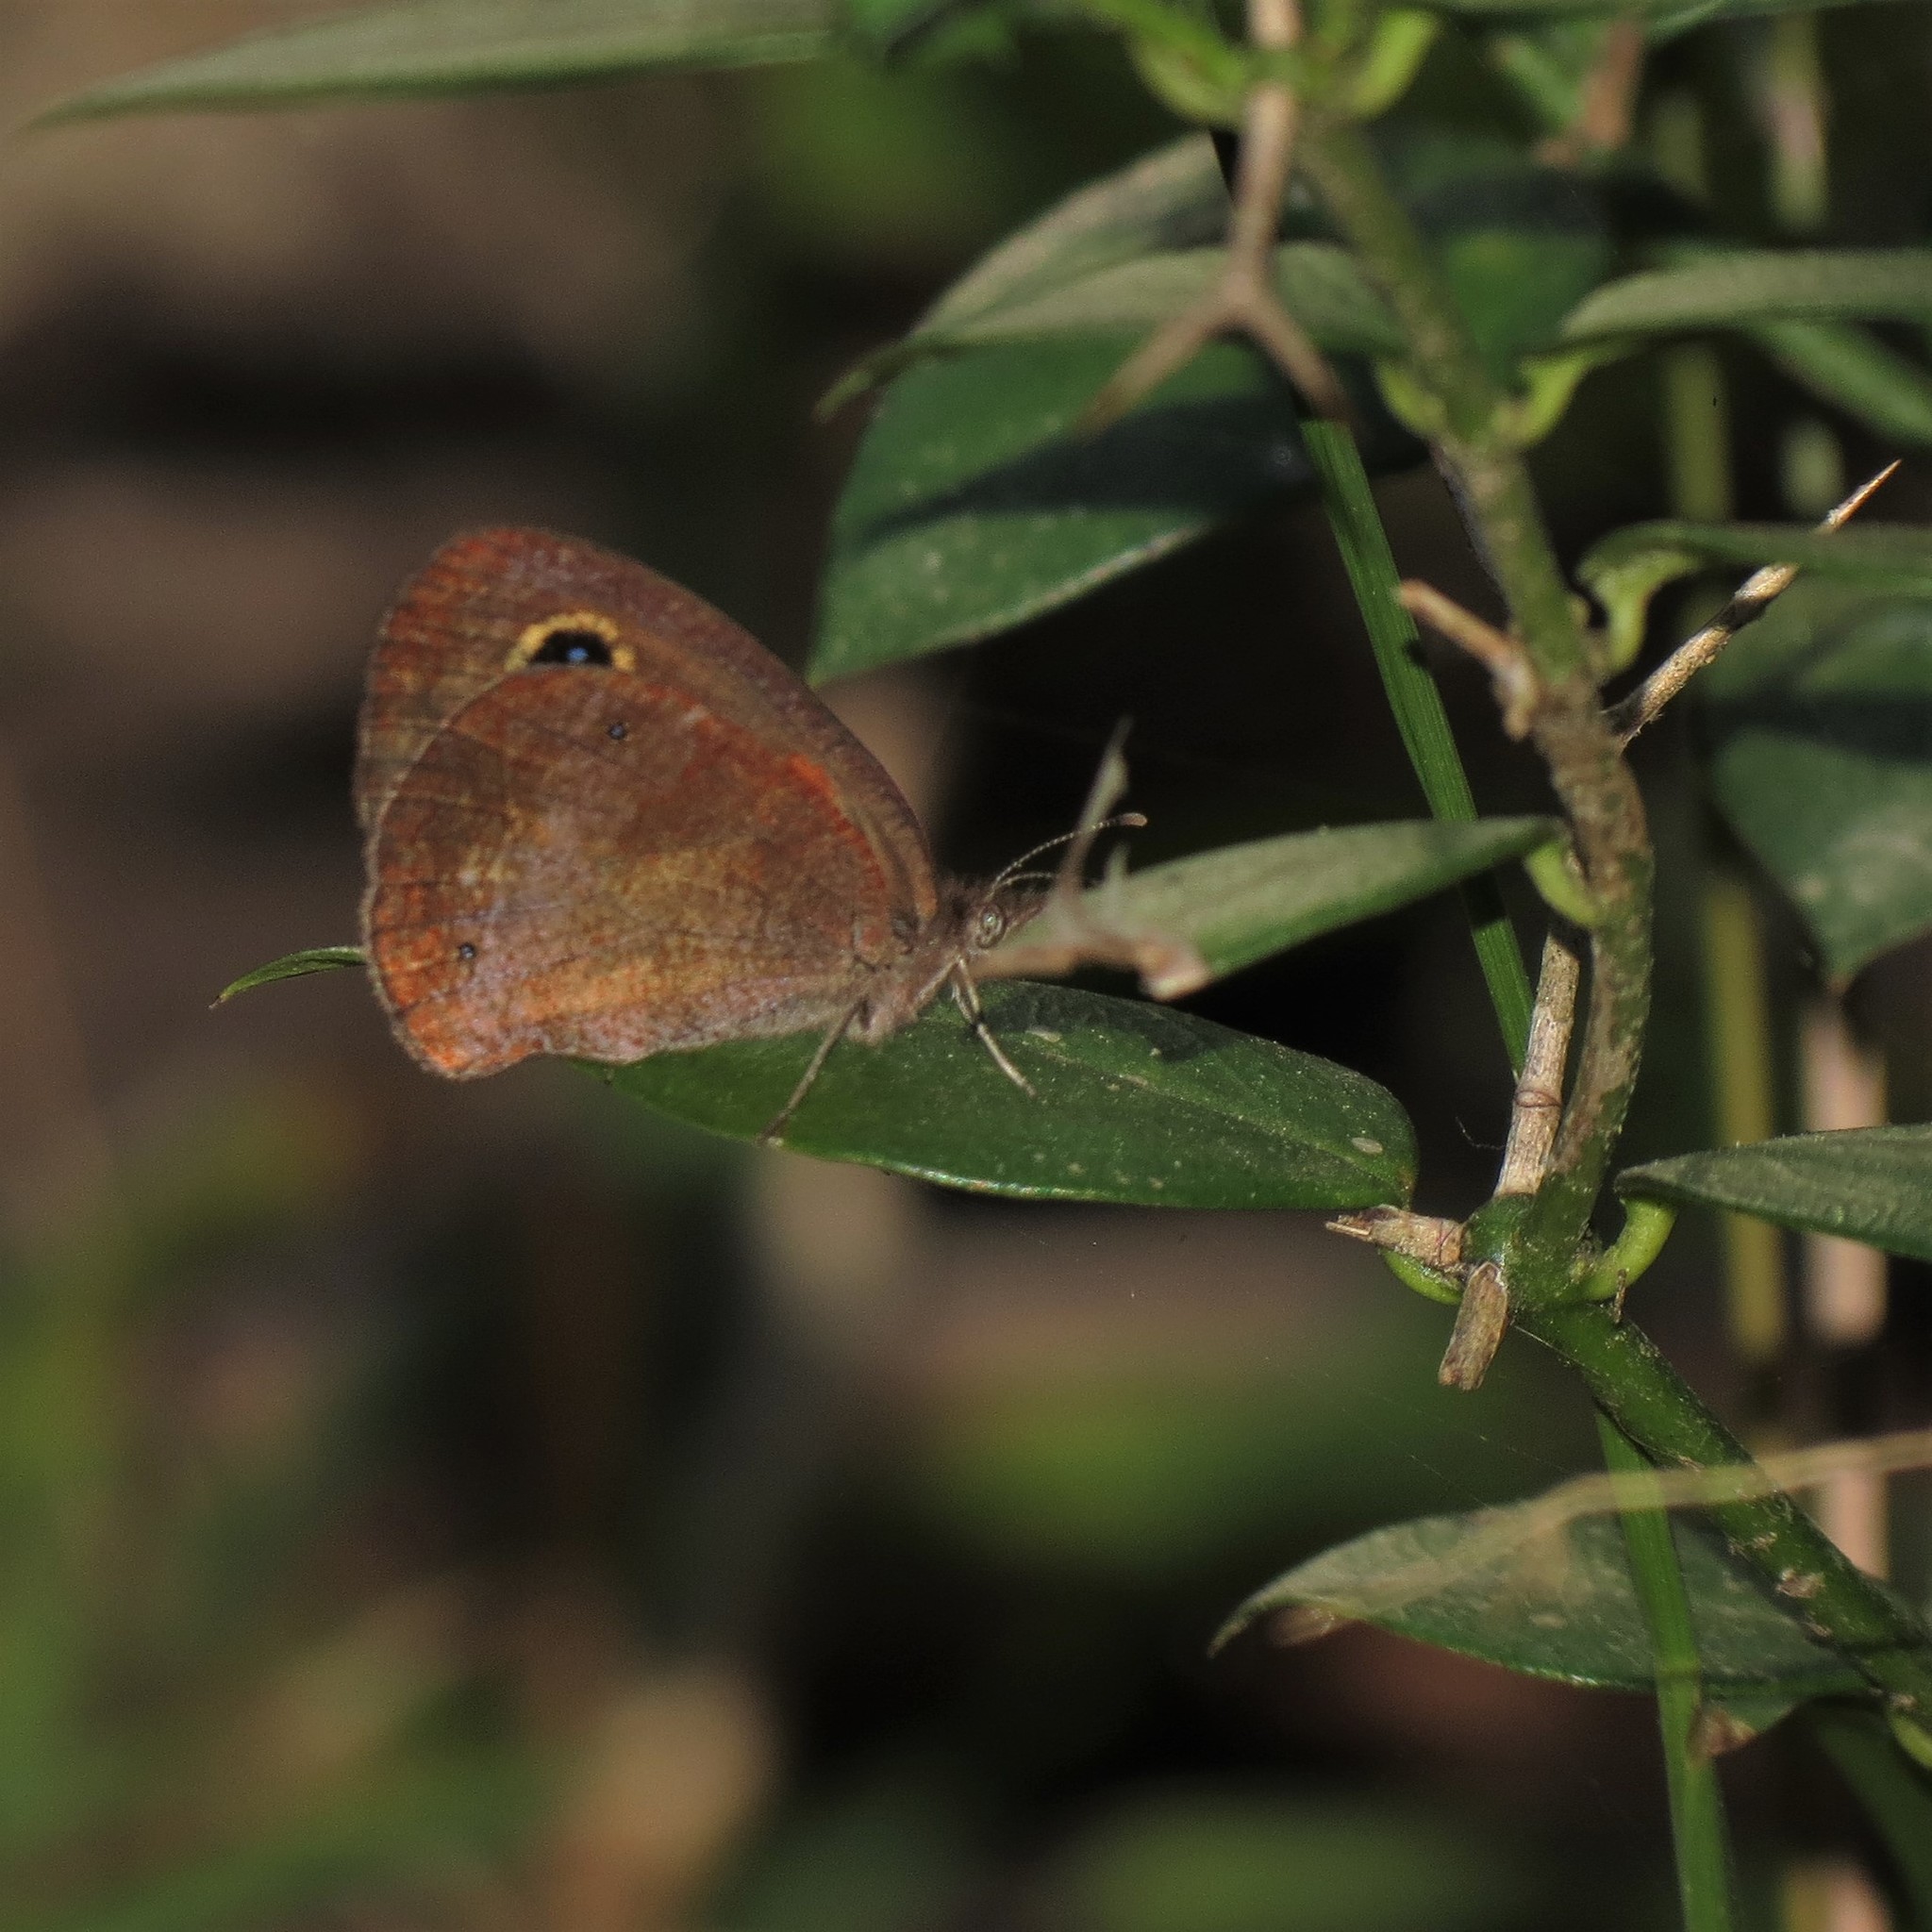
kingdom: Animalia
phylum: Arthropoda
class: Insecta
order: Lepidoptera
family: Nymphalidae
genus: Cassionympha
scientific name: Cassionympha cassius
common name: Rainforest brown
